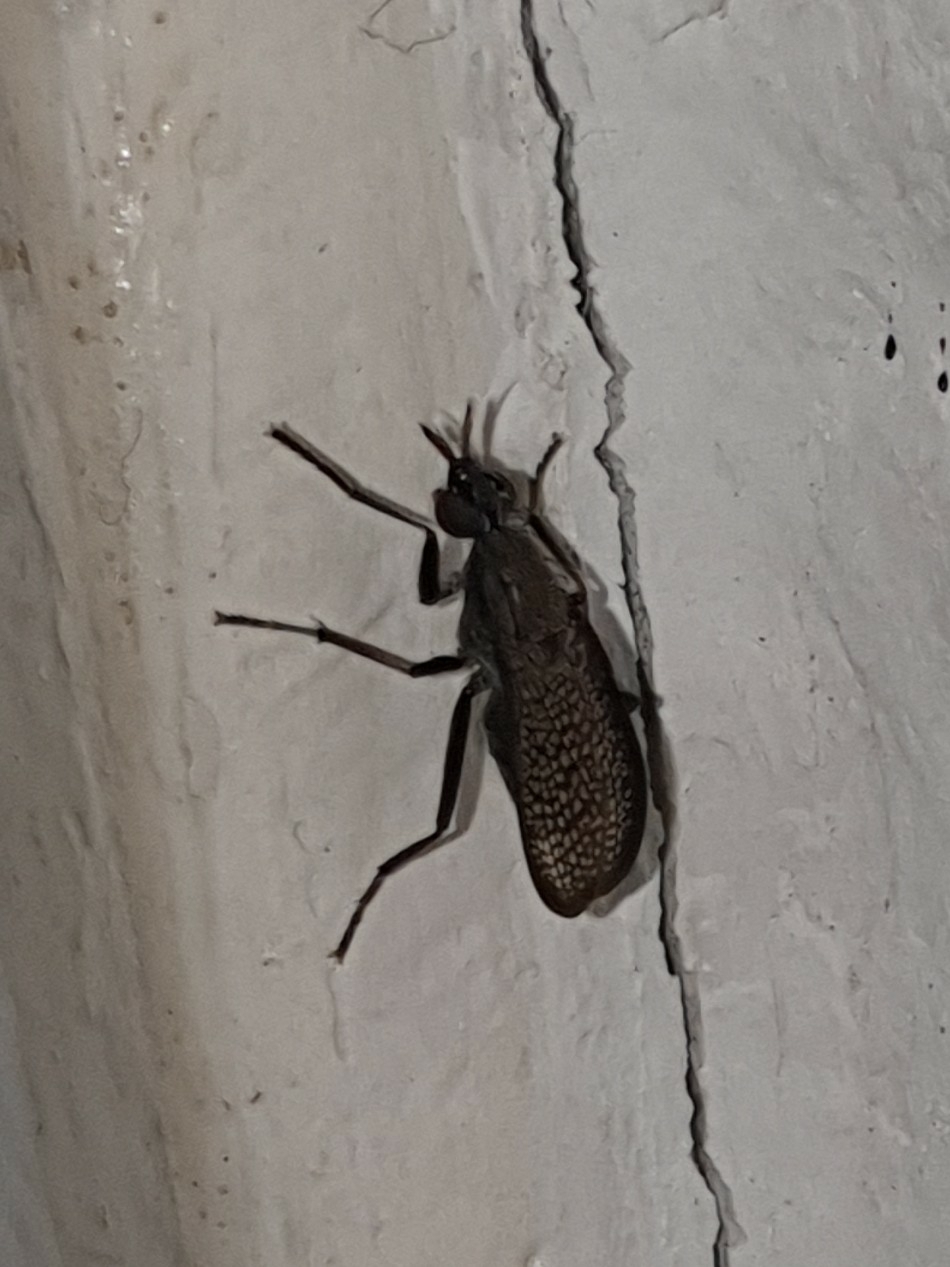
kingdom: Animalia
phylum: Arthropoda
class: Insecta
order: Diptera
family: Sciomyzidae
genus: Coremacera
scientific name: Coremacera marginata
